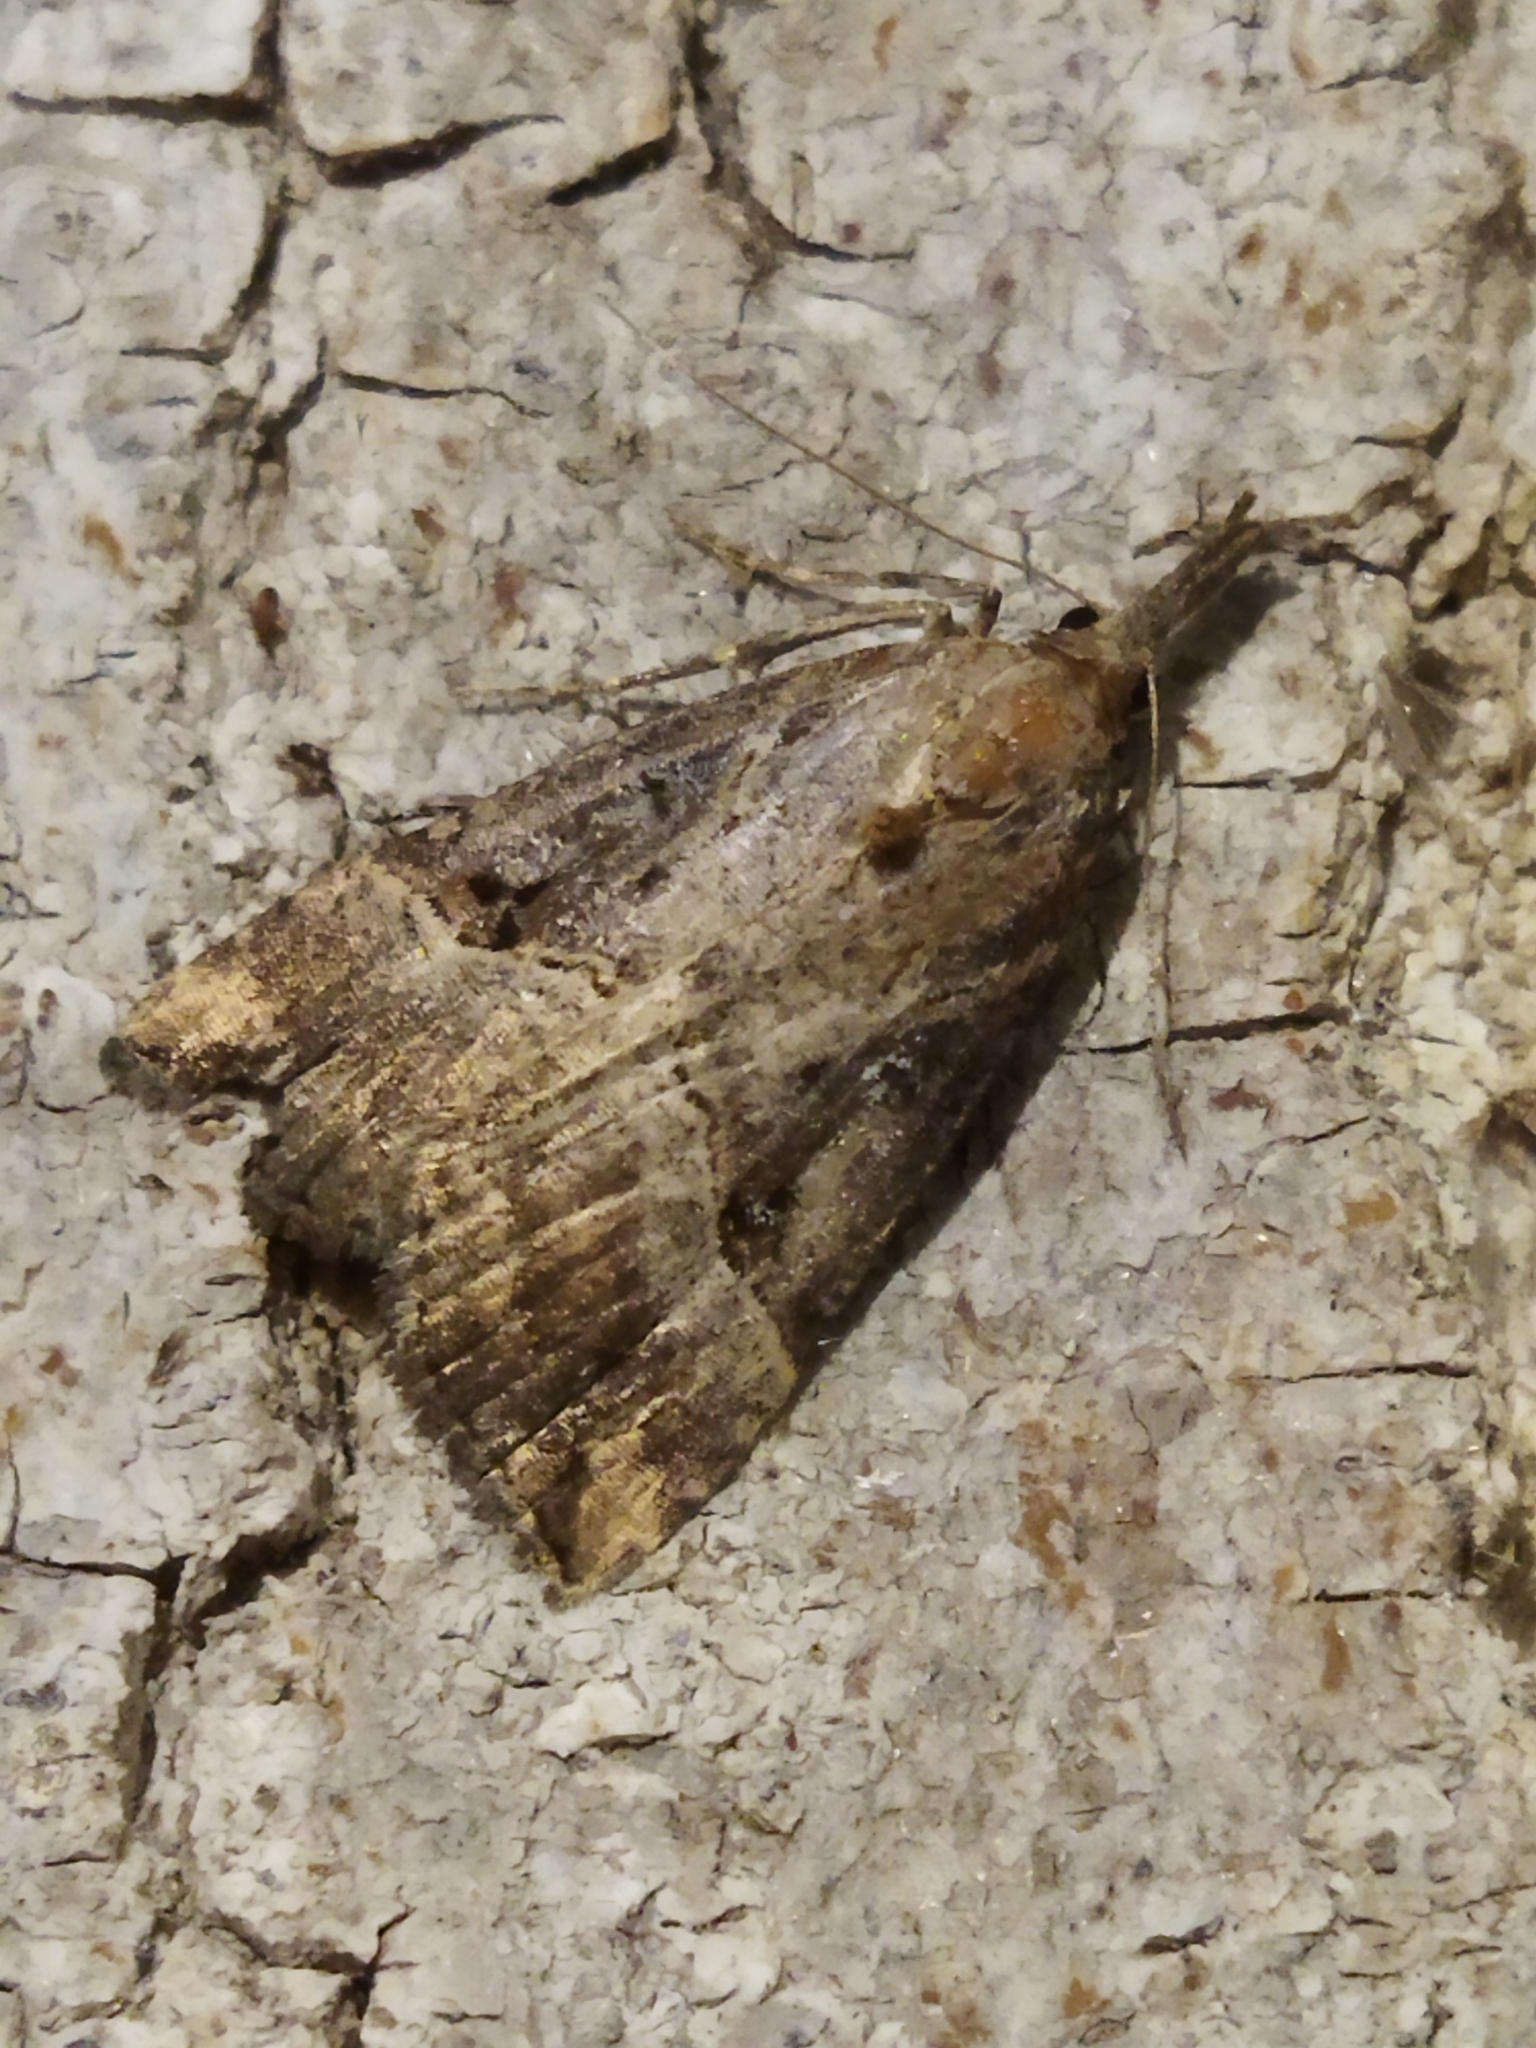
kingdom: Animalia
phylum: Arthropoda
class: Insecta
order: Lepidoptera
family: Erebidae
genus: Hypena
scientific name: Hypena rostralis
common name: Buttoned snout
